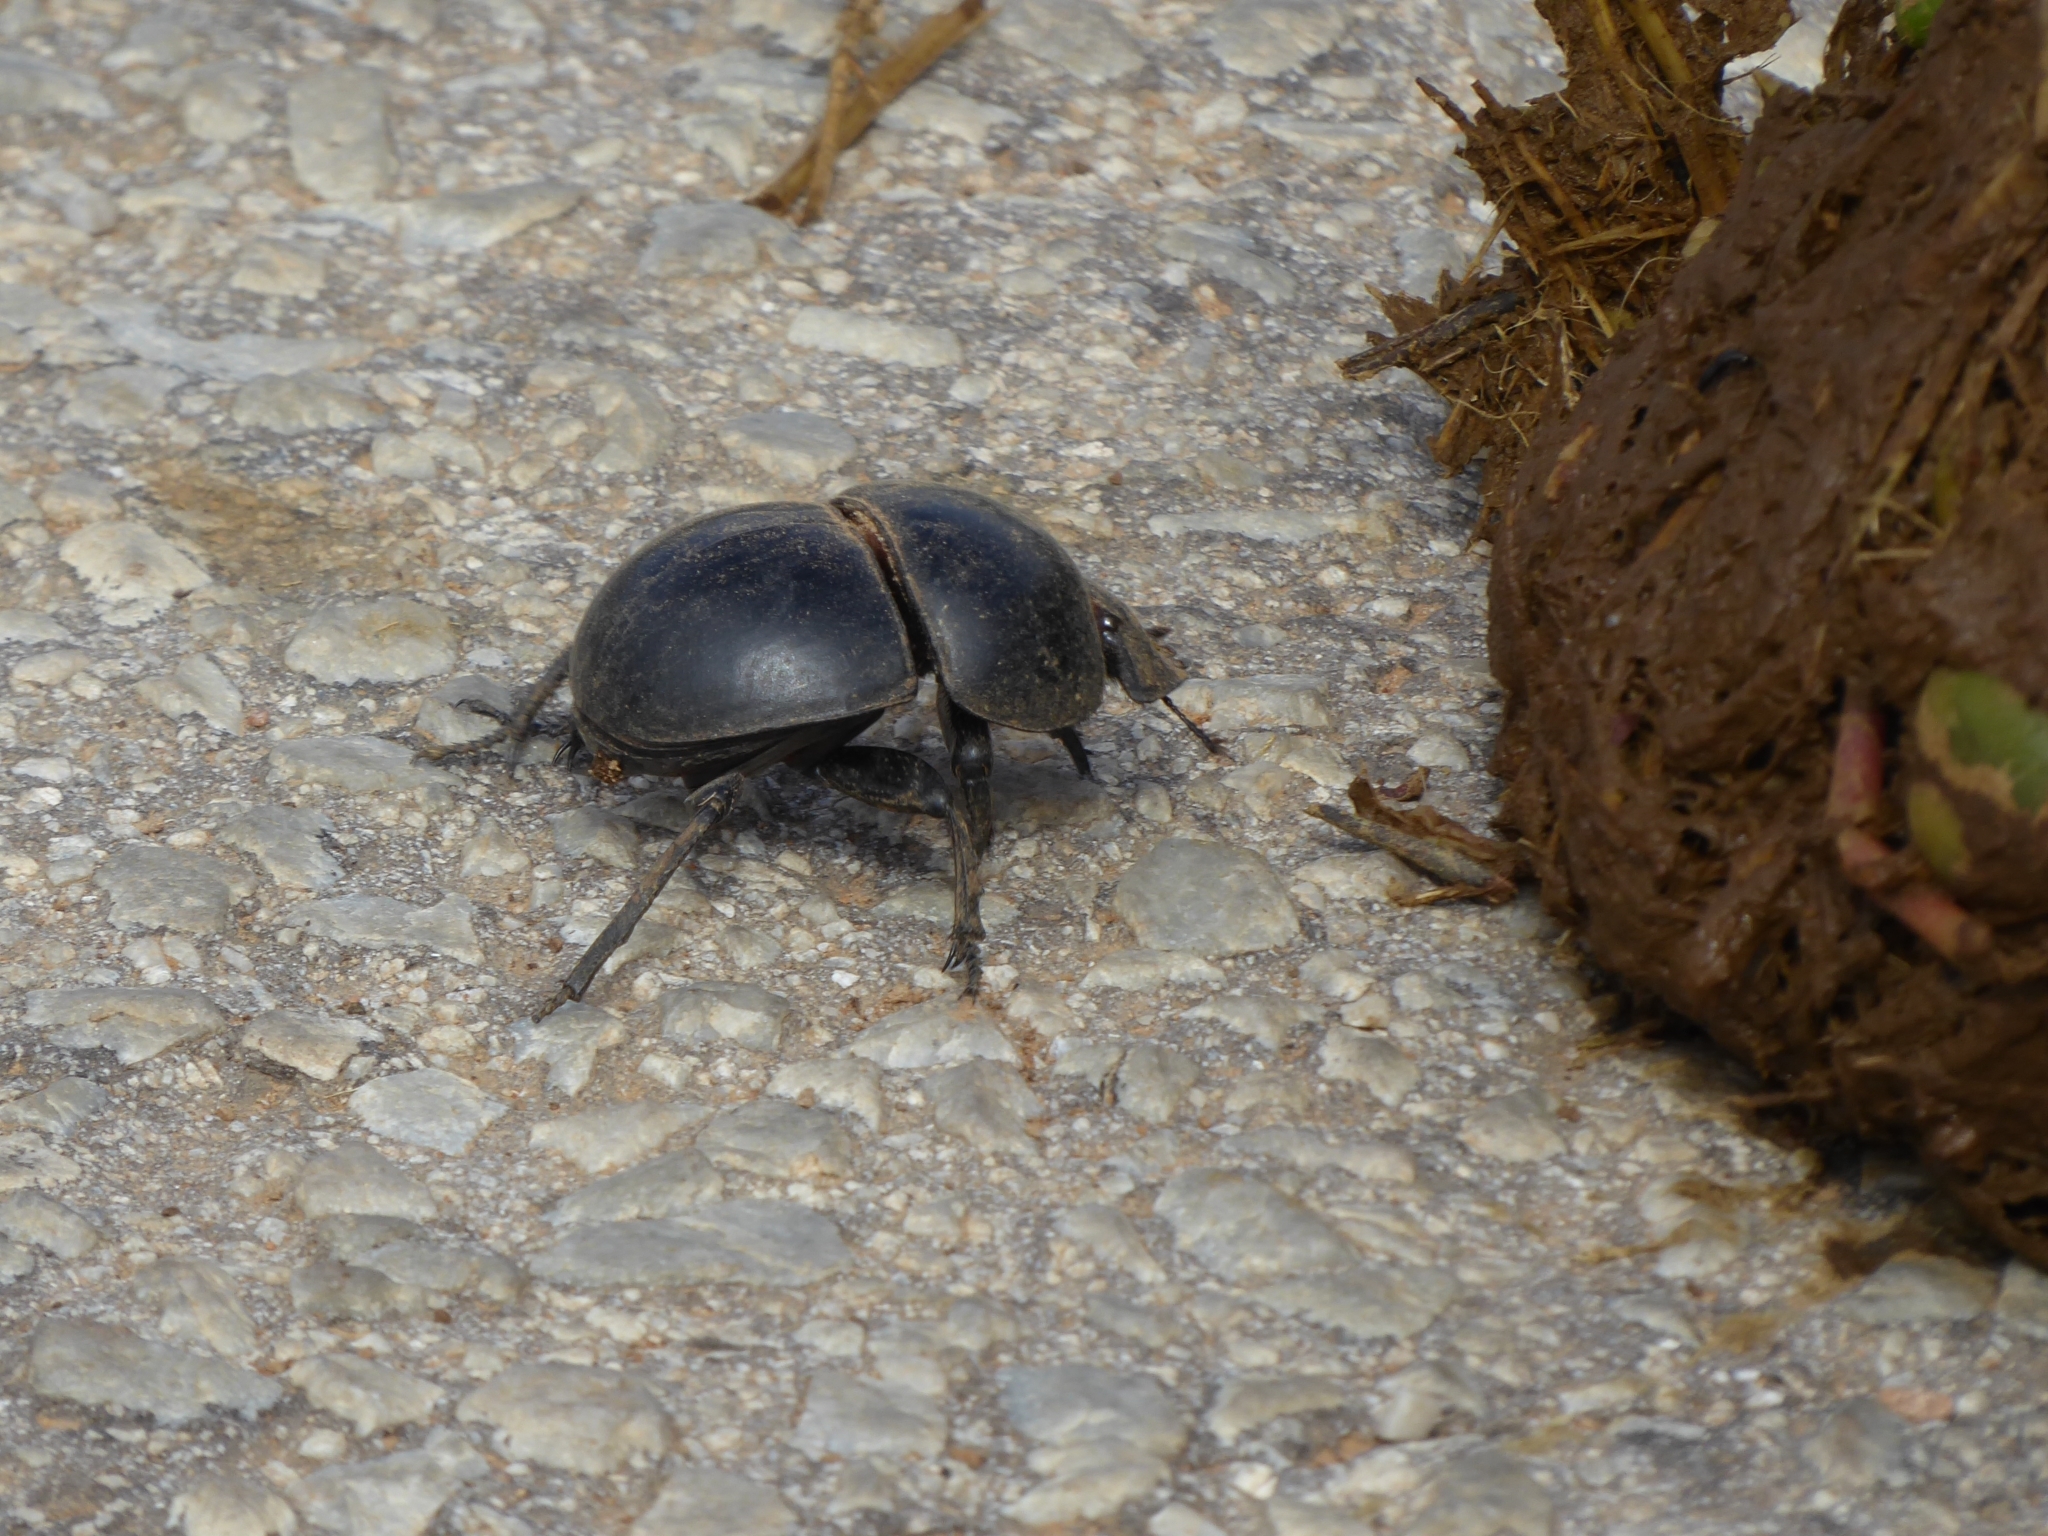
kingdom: Animalia
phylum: Arthropoda
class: Insecta
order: Coleoptera
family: Scarabaeidae
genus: Circellium
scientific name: Circellium bacchus
